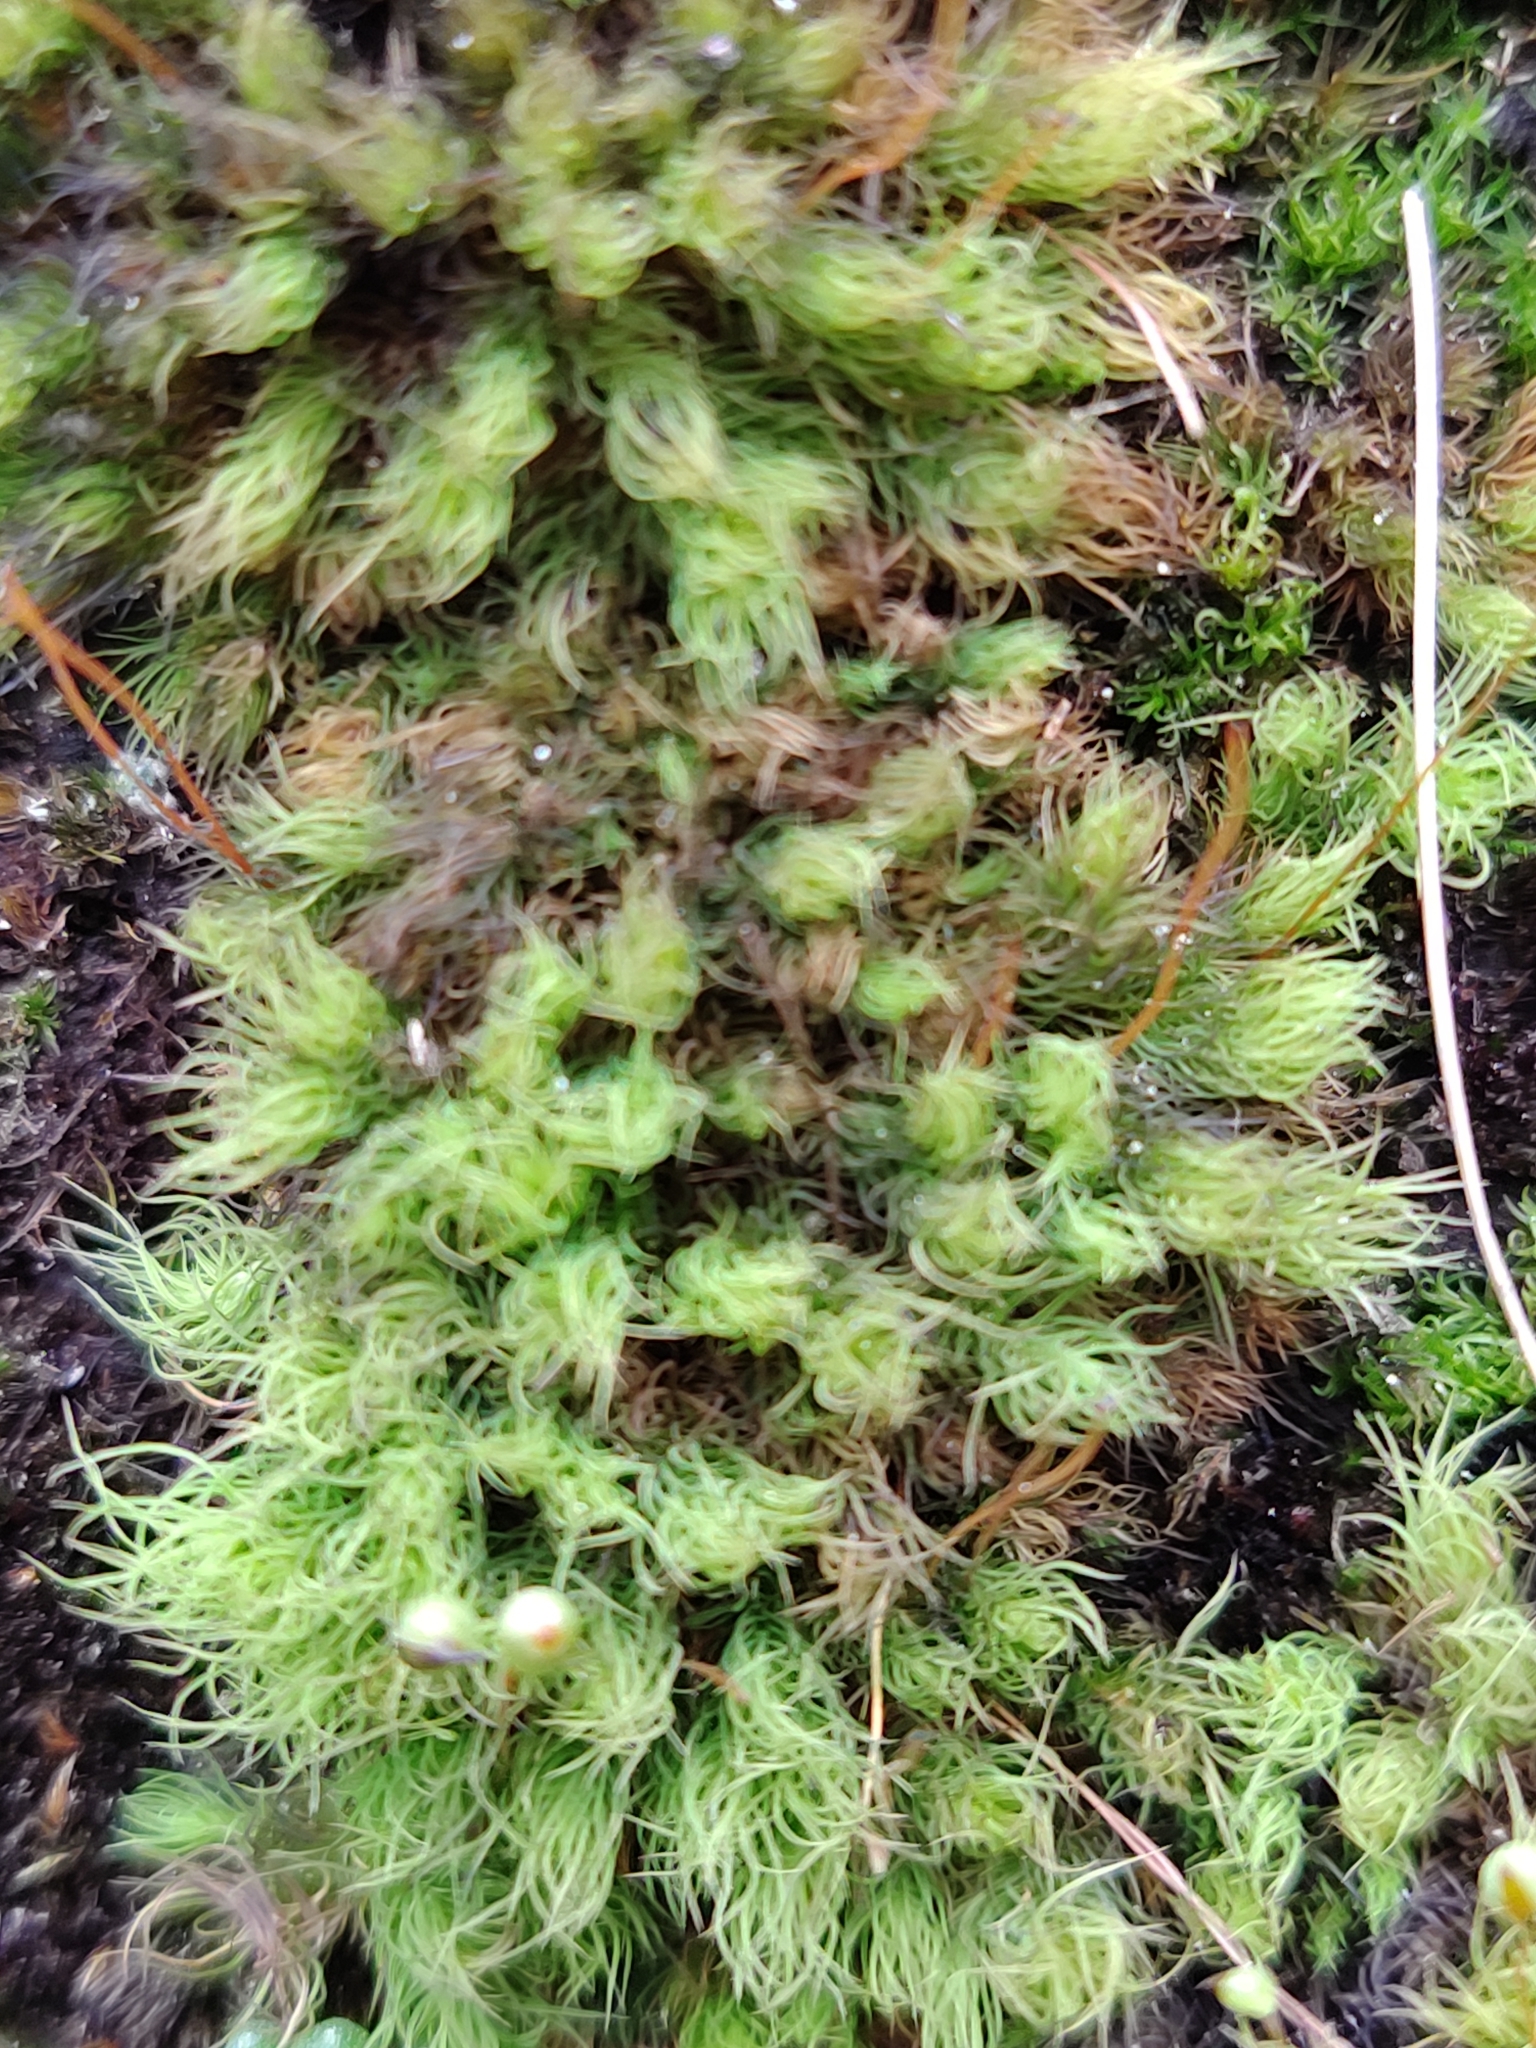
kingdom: Plantae
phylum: Bryophyta
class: Bryopsida
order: Bartramiales
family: Bartramiaceae
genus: Bartramia
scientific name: Bartramia ithyphylla
